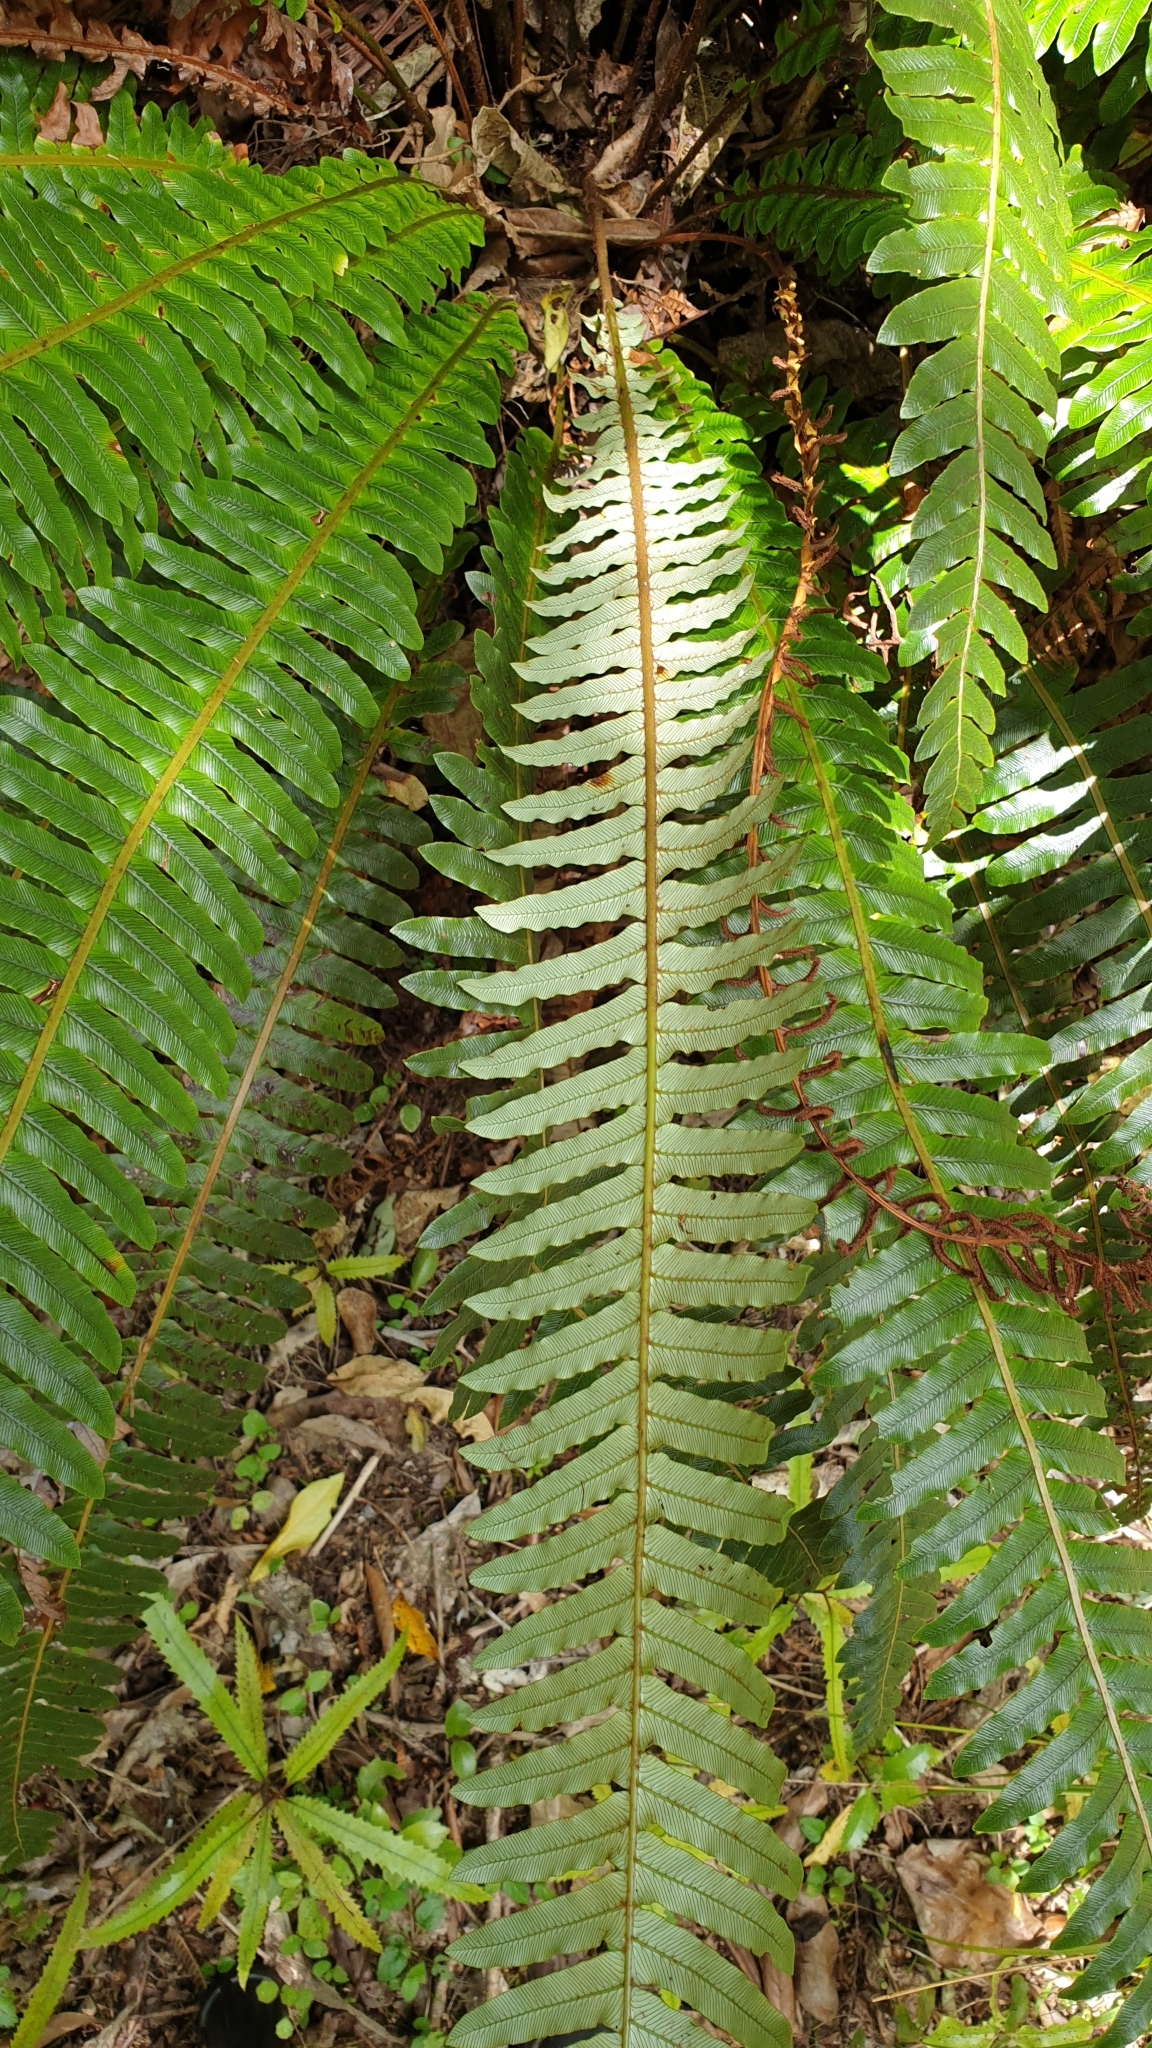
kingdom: Plantae
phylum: Tracheophyta
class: Polypodiopsida
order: Polypodiales
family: Blechnaceae
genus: Lomaria
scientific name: Lomaria discolor
